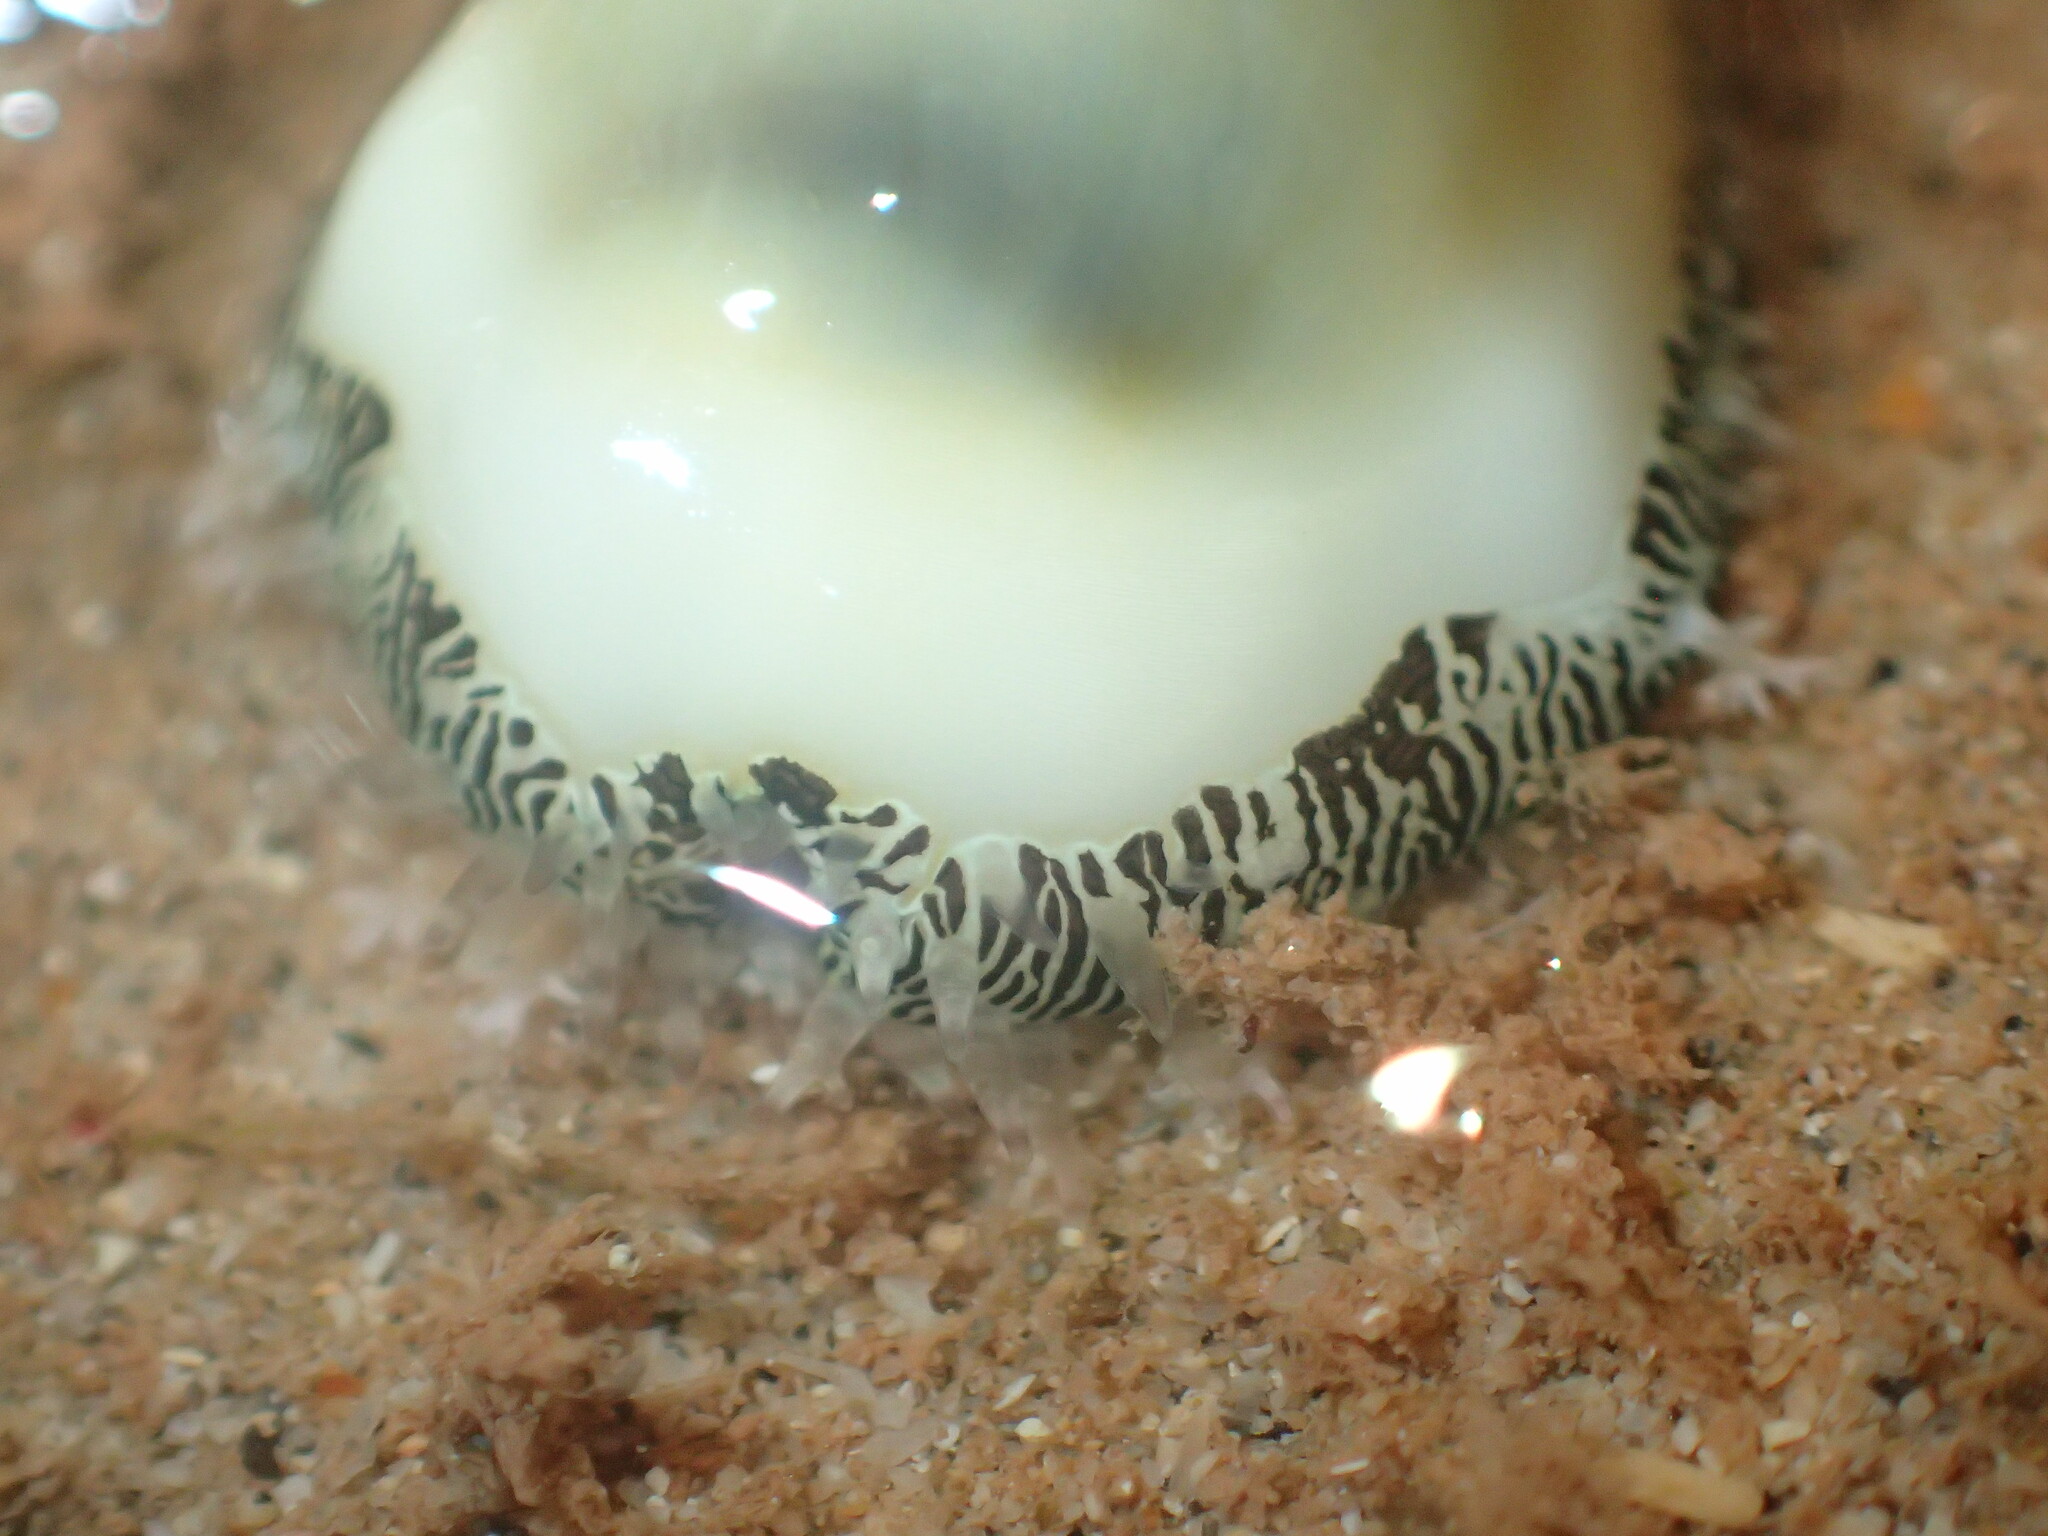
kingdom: Animalia
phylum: Mollusca
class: Gastropoda
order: Littorinimorpha
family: Cypraeidae
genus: Monetaria
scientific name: Monetaria moneta
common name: Money cowrie
